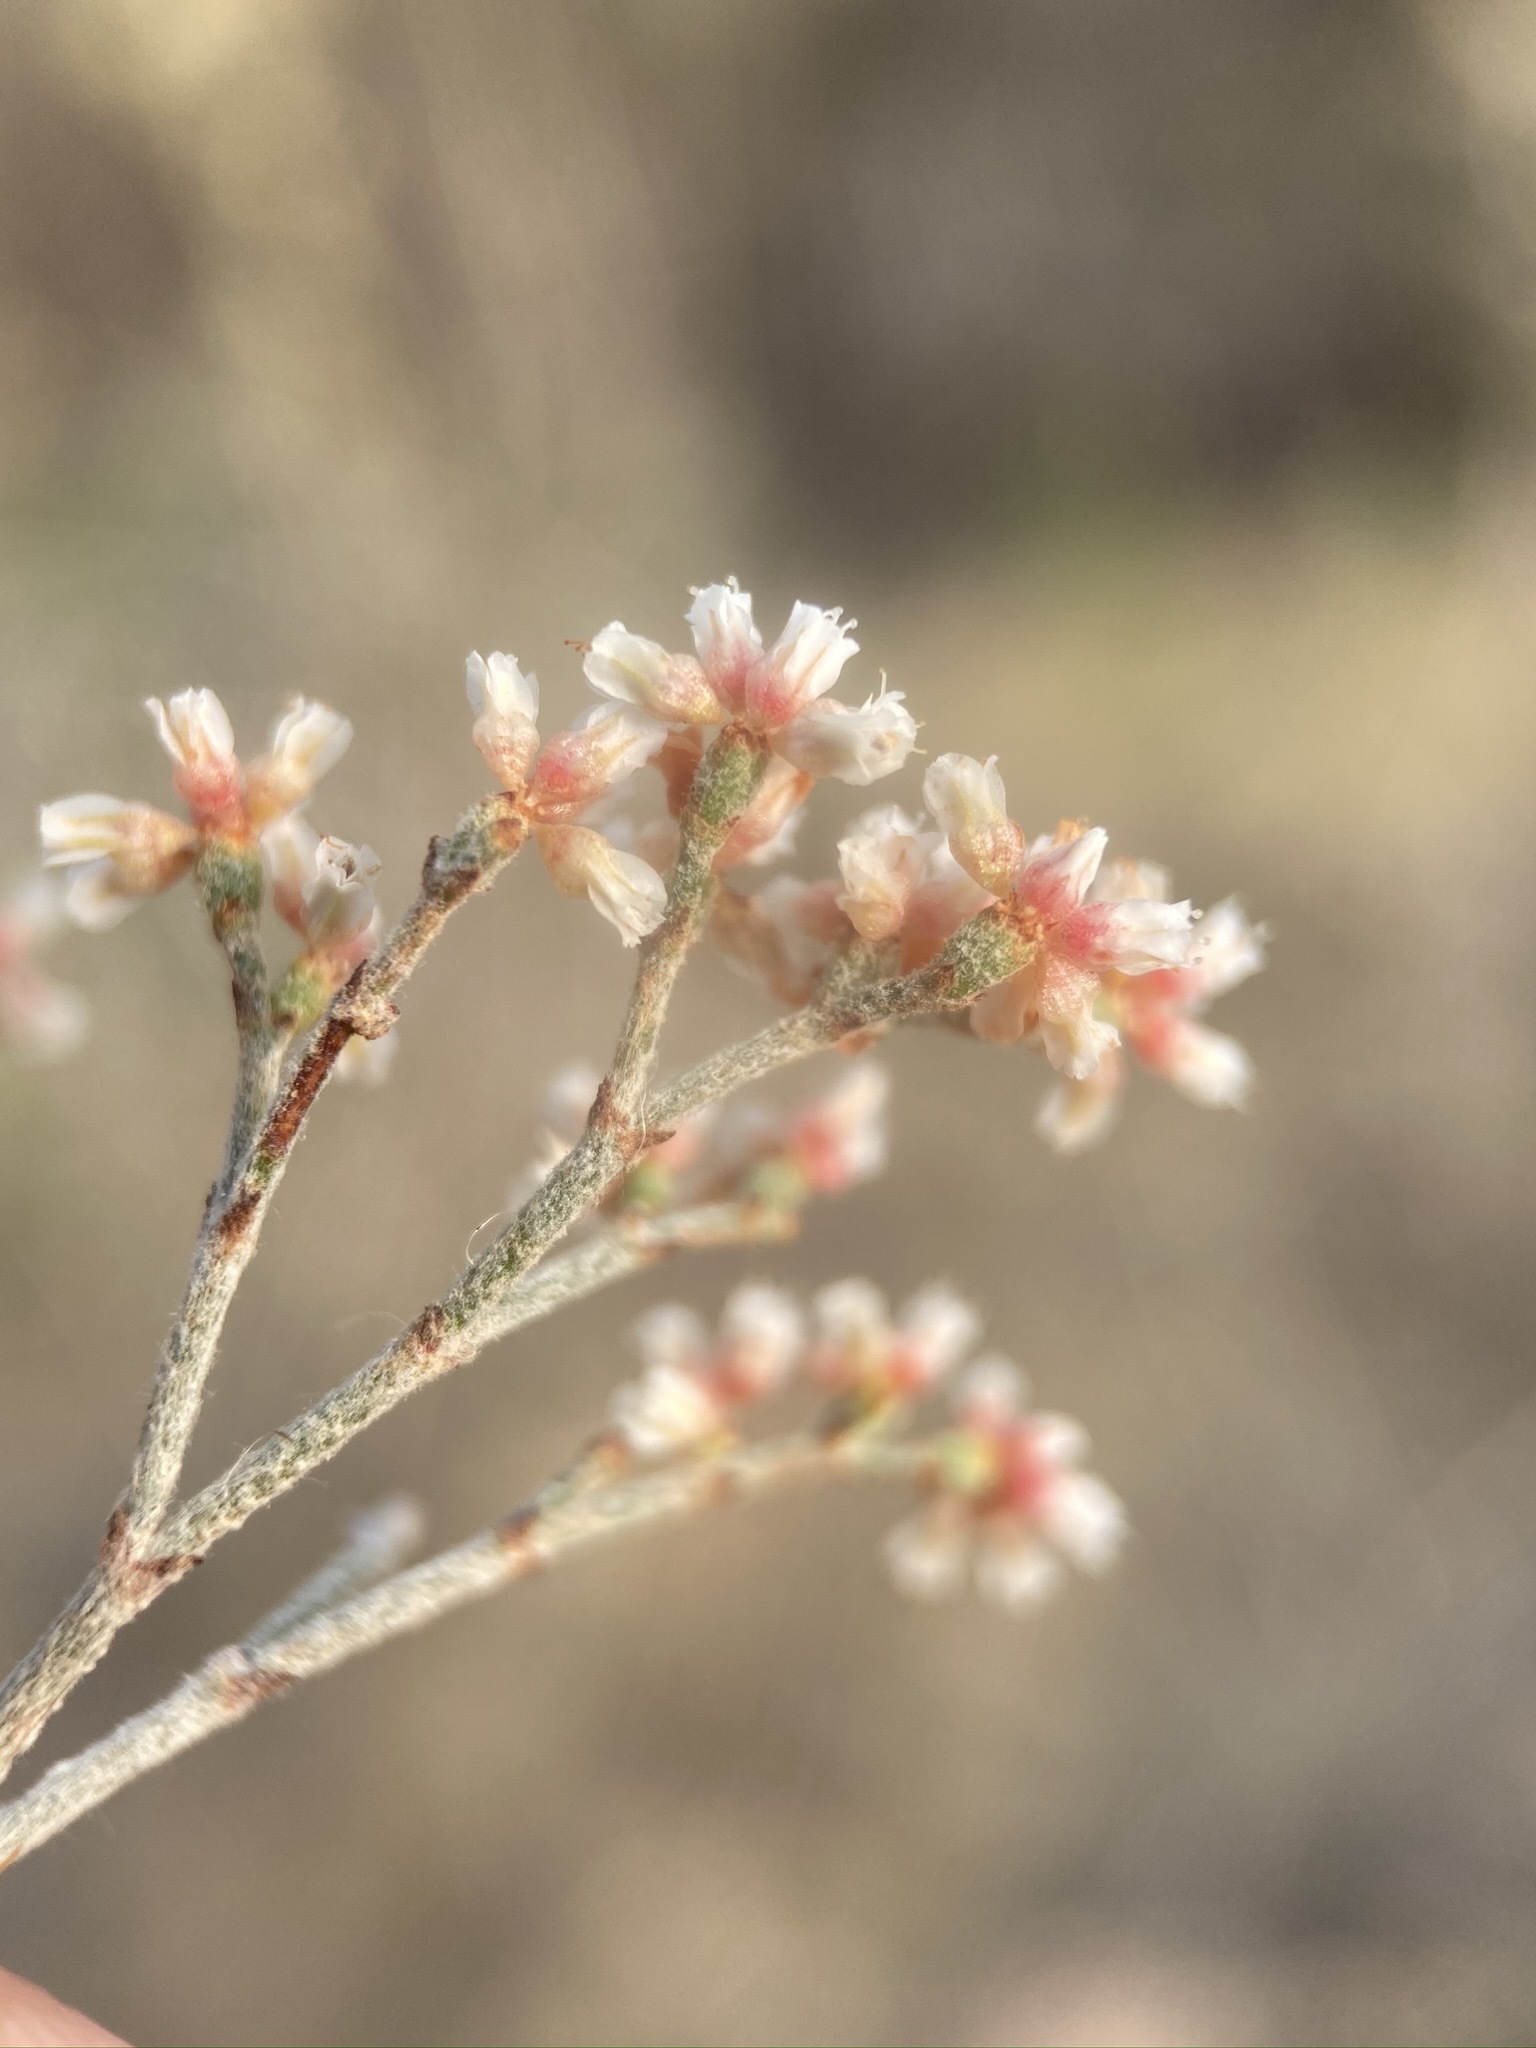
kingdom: Plantae
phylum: Tracheophyta
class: Magnoliopsida
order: Caryophyllales
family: Polygonaceae
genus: Eriogonum
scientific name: Eriogonum effusum
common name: Spreading wild buckwheat
